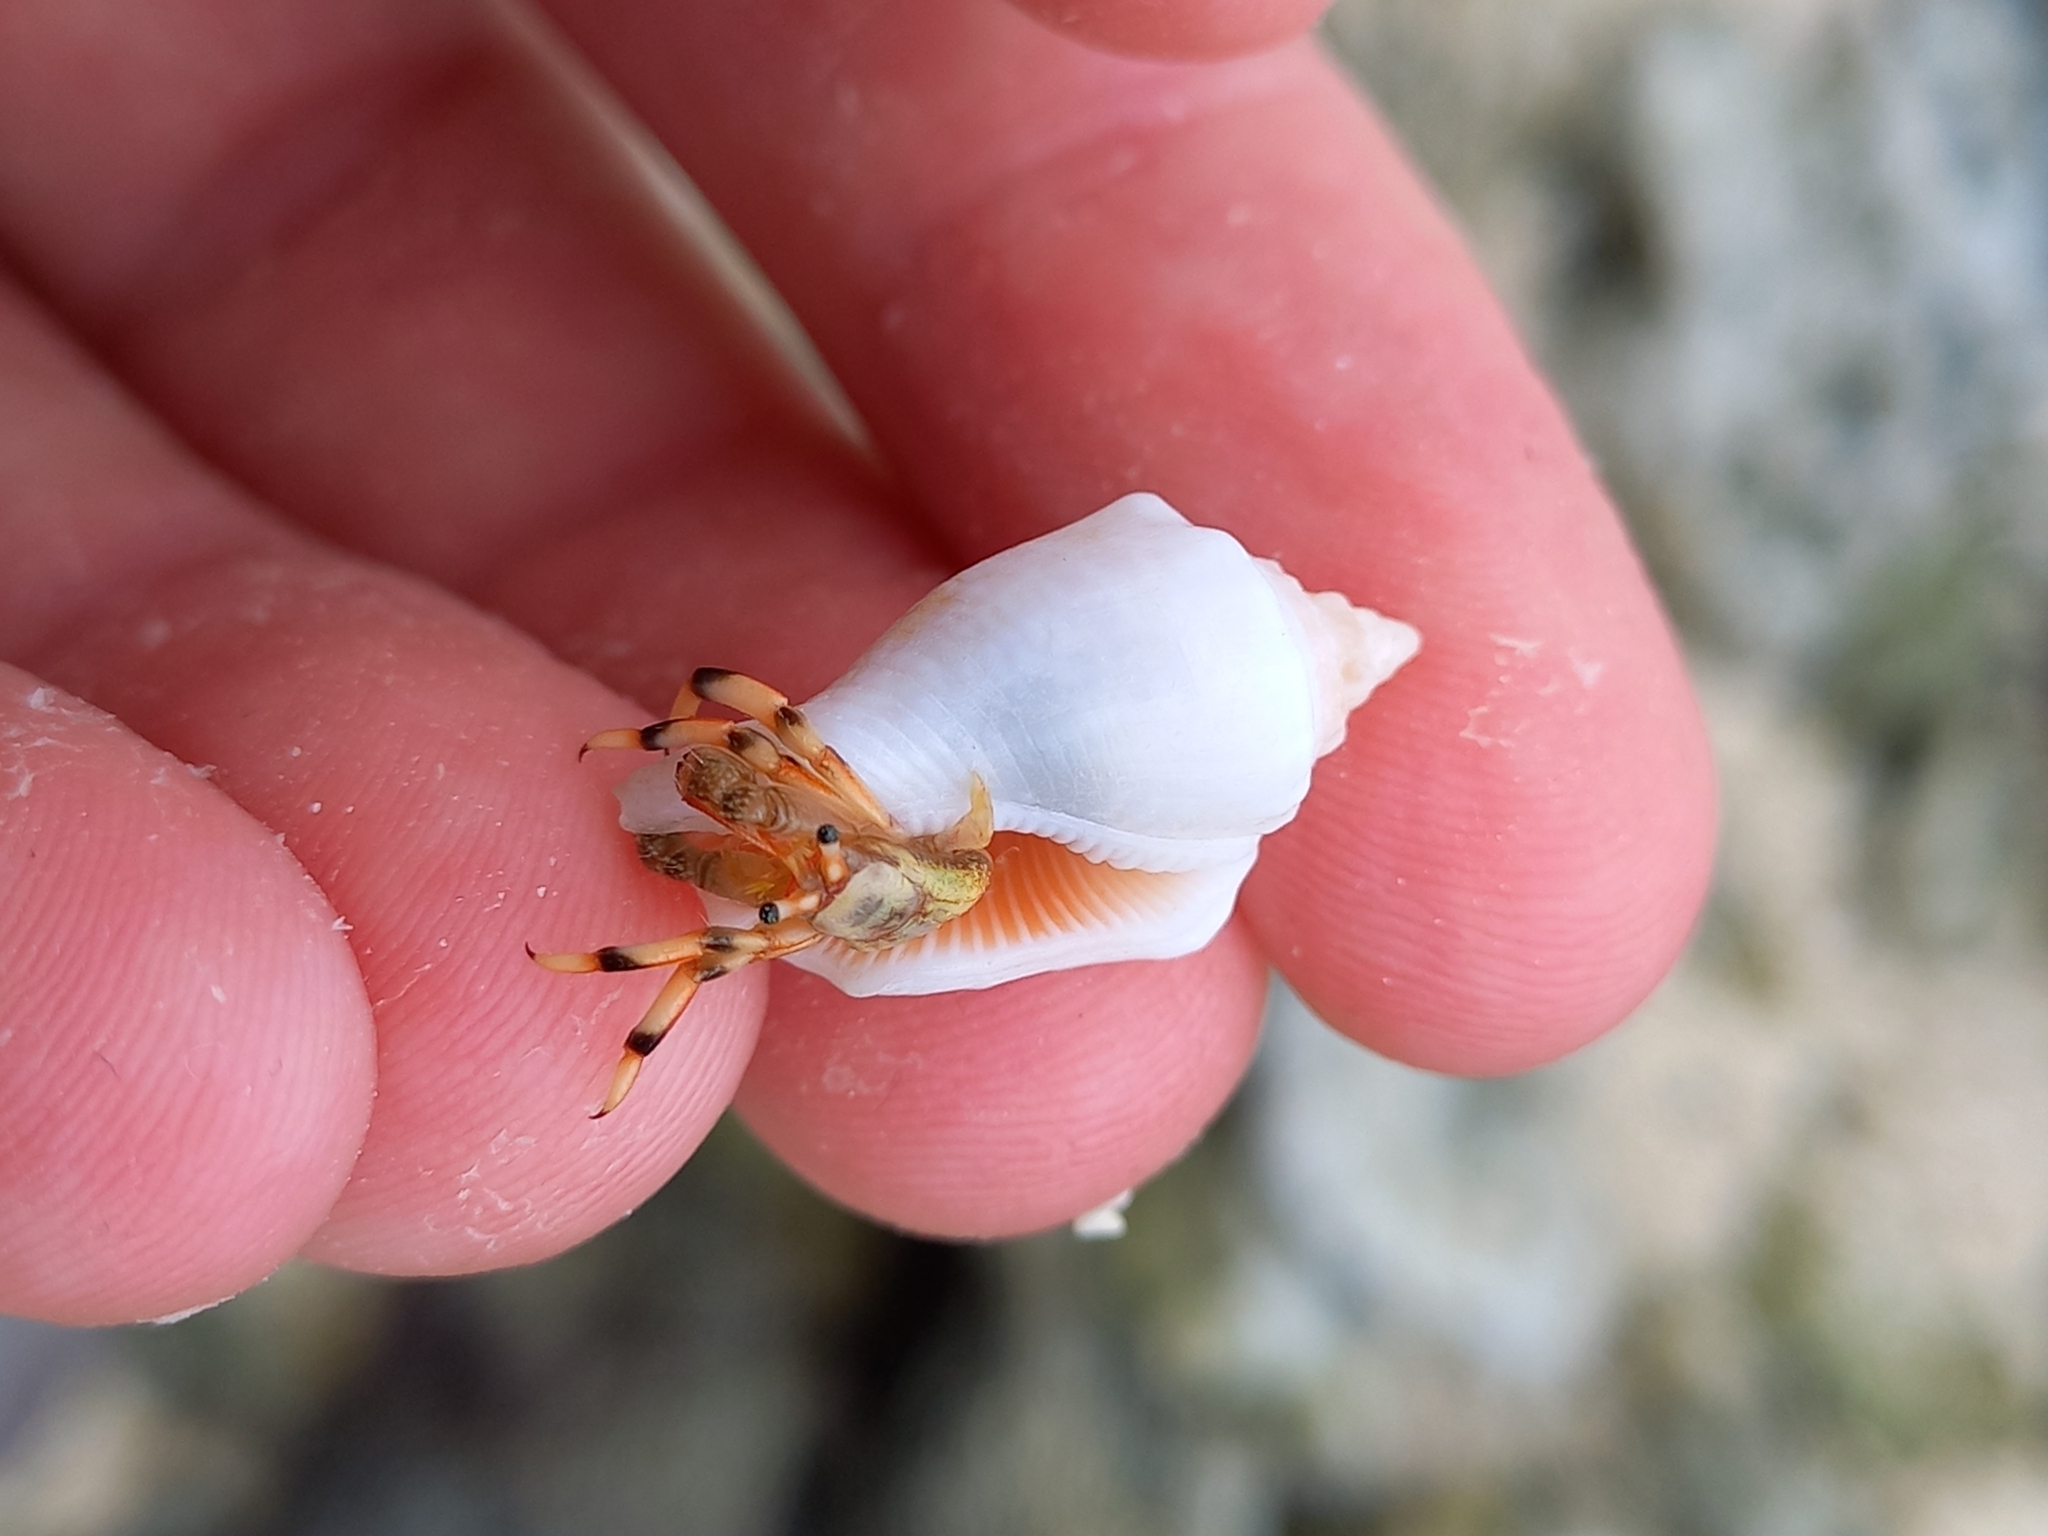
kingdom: Animalia
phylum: Arthropoda
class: Malacostraca
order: Decapoda
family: Diogenidae
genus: Clibanarius
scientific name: Clibanarius humilis
